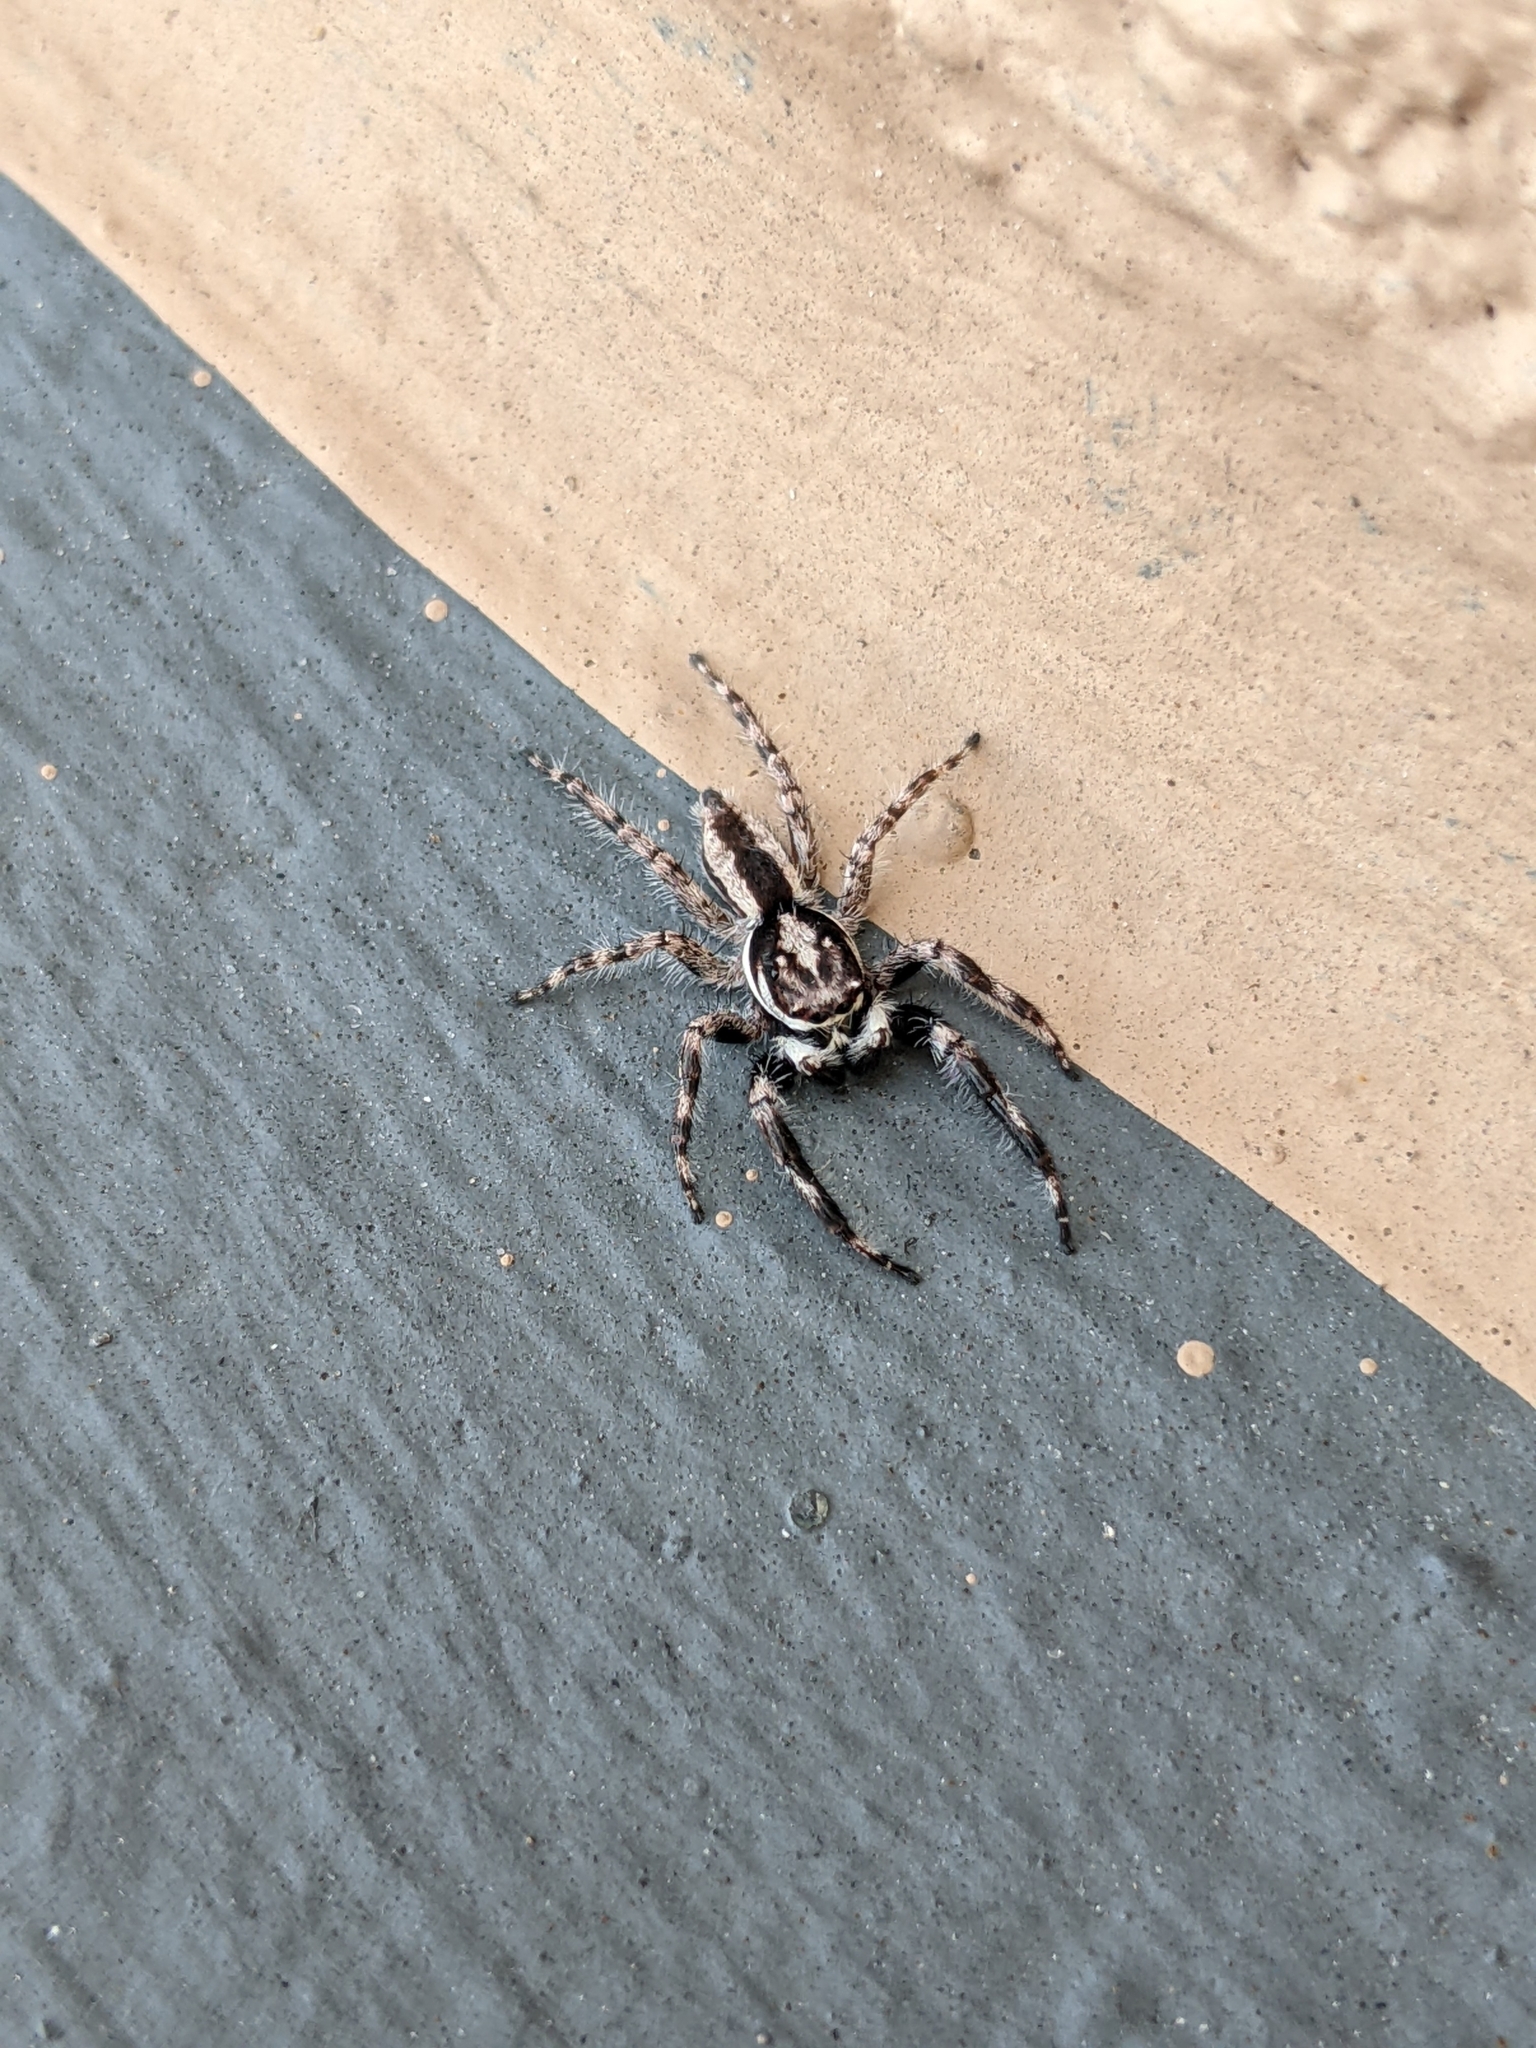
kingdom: Animalia
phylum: Arthropoda
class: Arachnida
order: Araneae
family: Salticidae
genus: Menemerus
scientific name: Menemerus bivittatus
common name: Gray wall jumper
